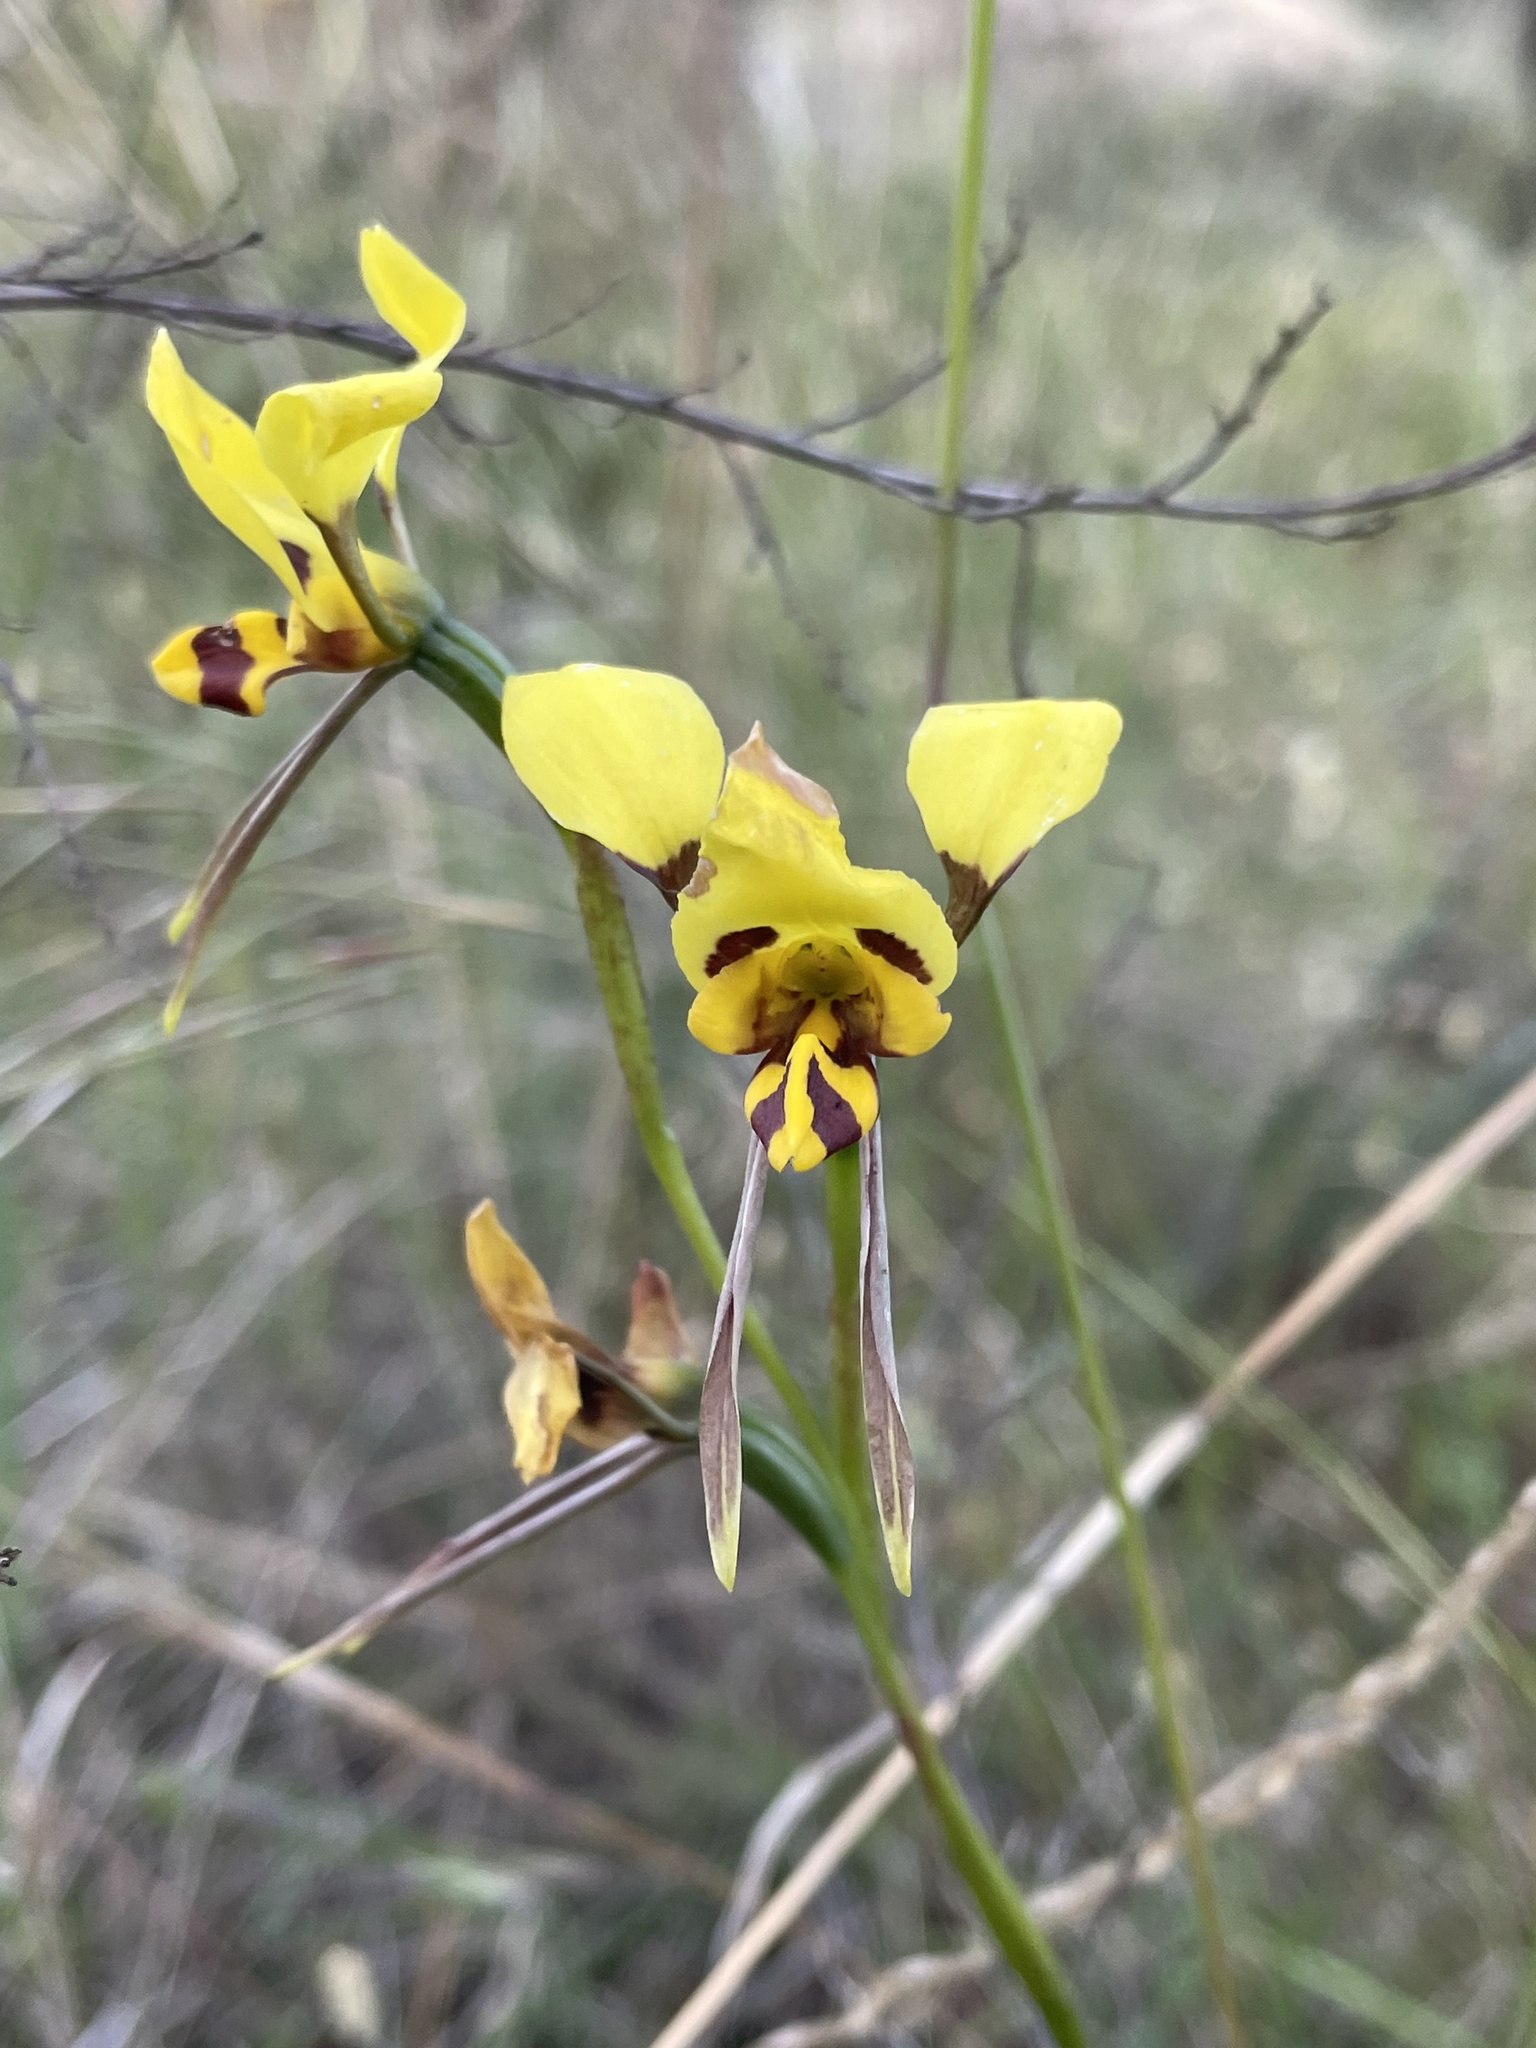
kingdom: Plantae
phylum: Tracheophyta
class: Liliopsida
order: Asparagales
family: Orchidaceae
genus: Diuris
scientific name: Diuris sulphurea
